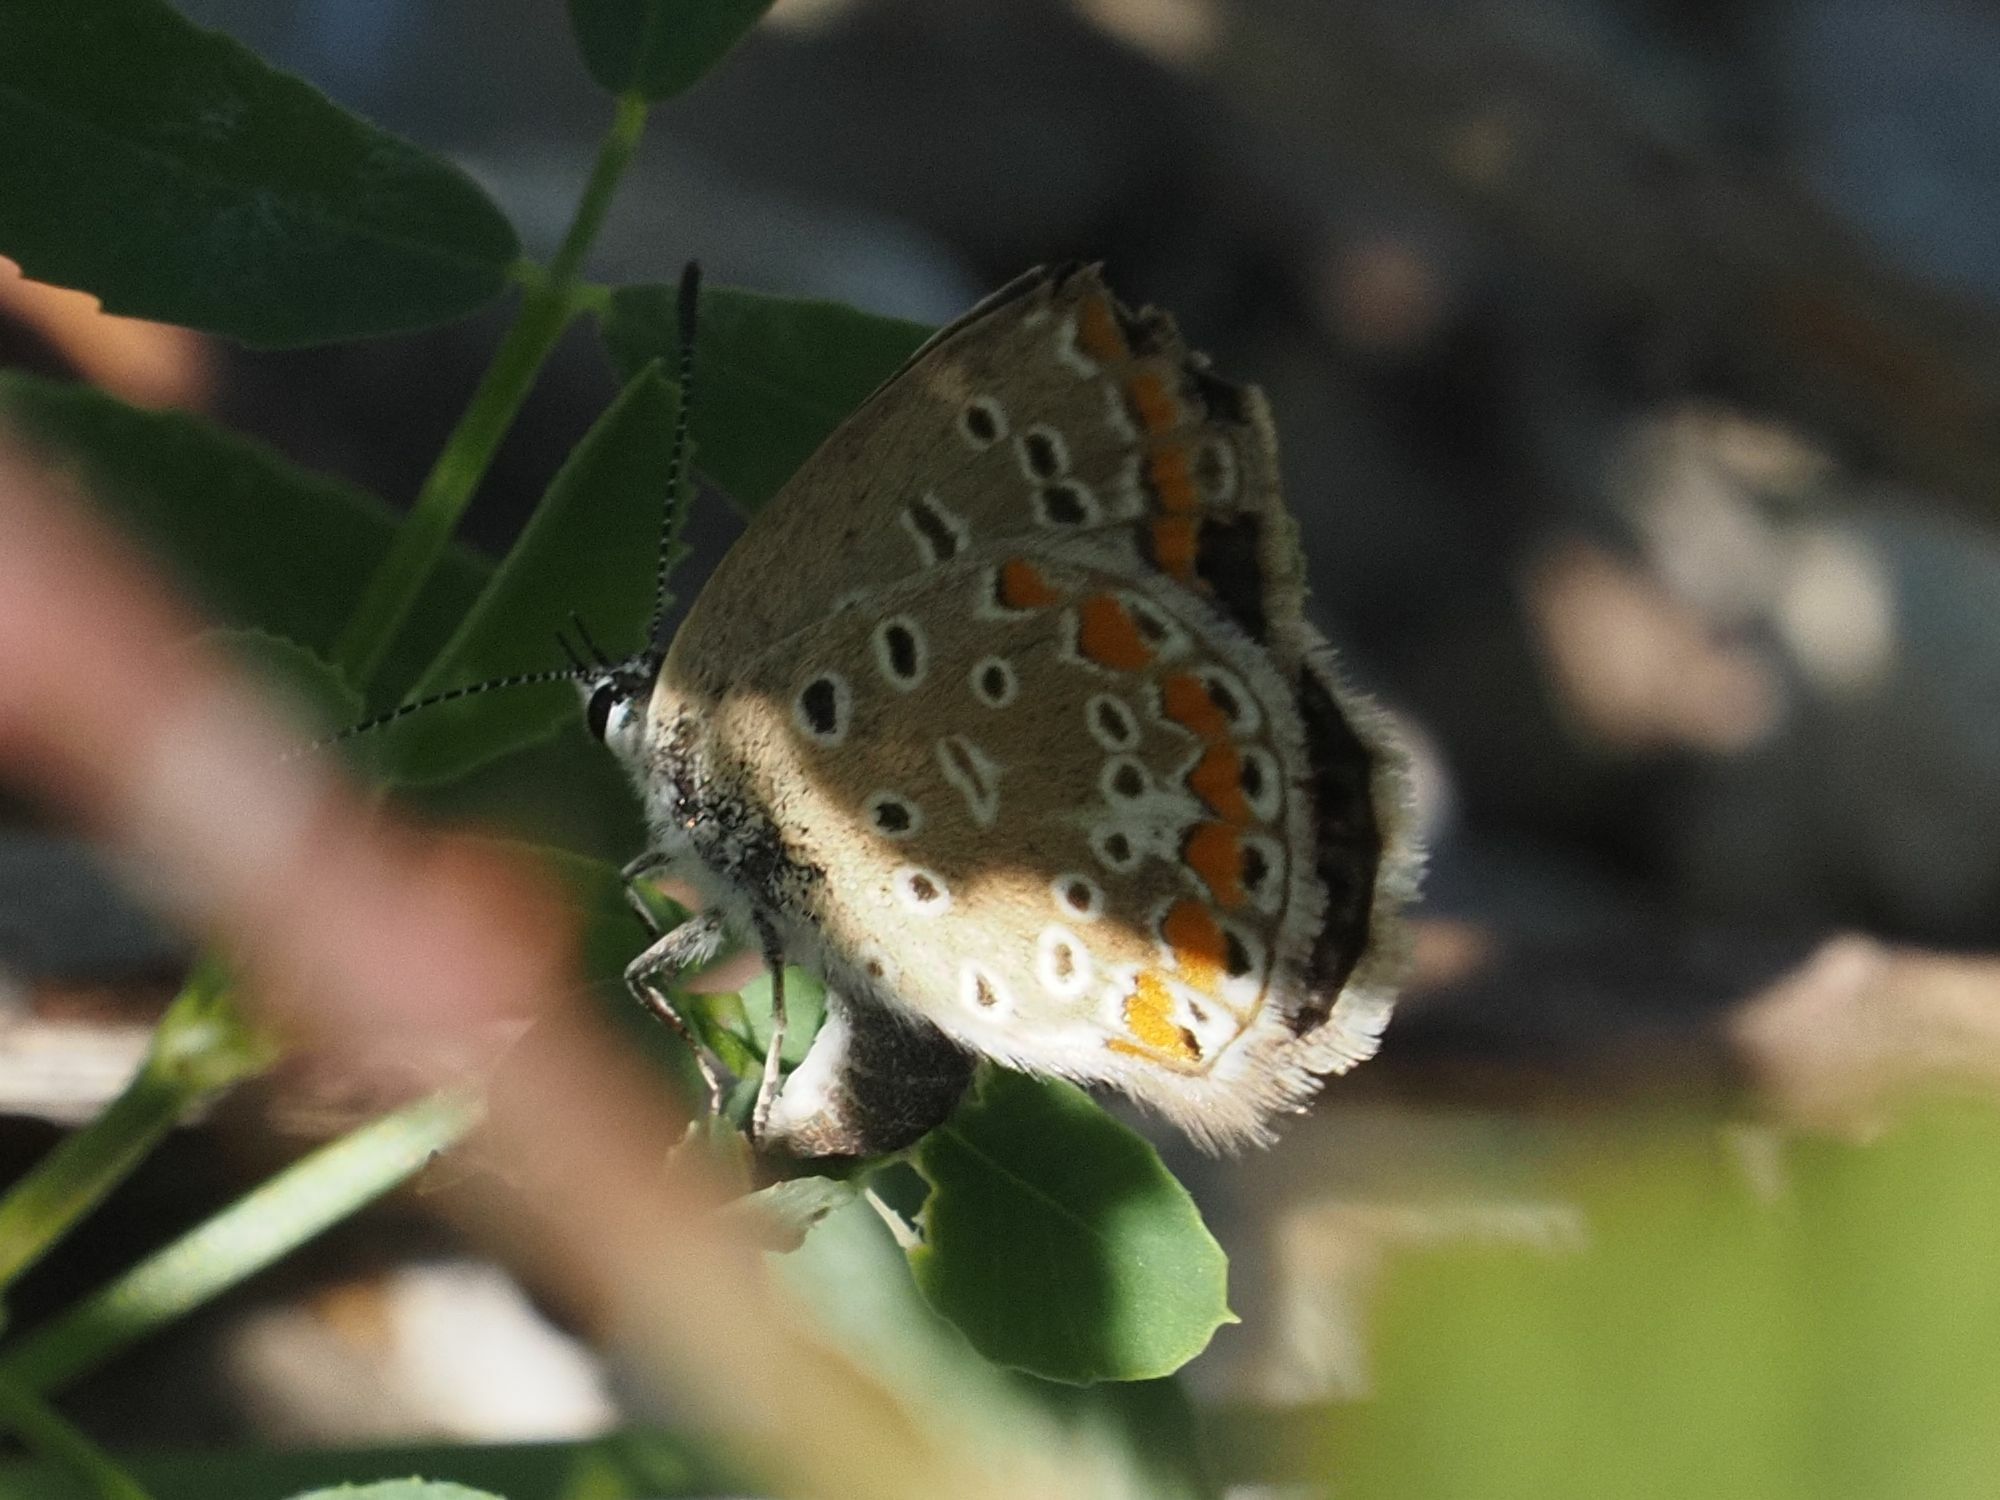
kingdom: Animalia
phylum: Arthropoda
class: Insecta
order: Lepidoptera
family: Lycaenidae
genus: Polyommatus
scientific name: Polyommatus icarus
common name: Common blue
